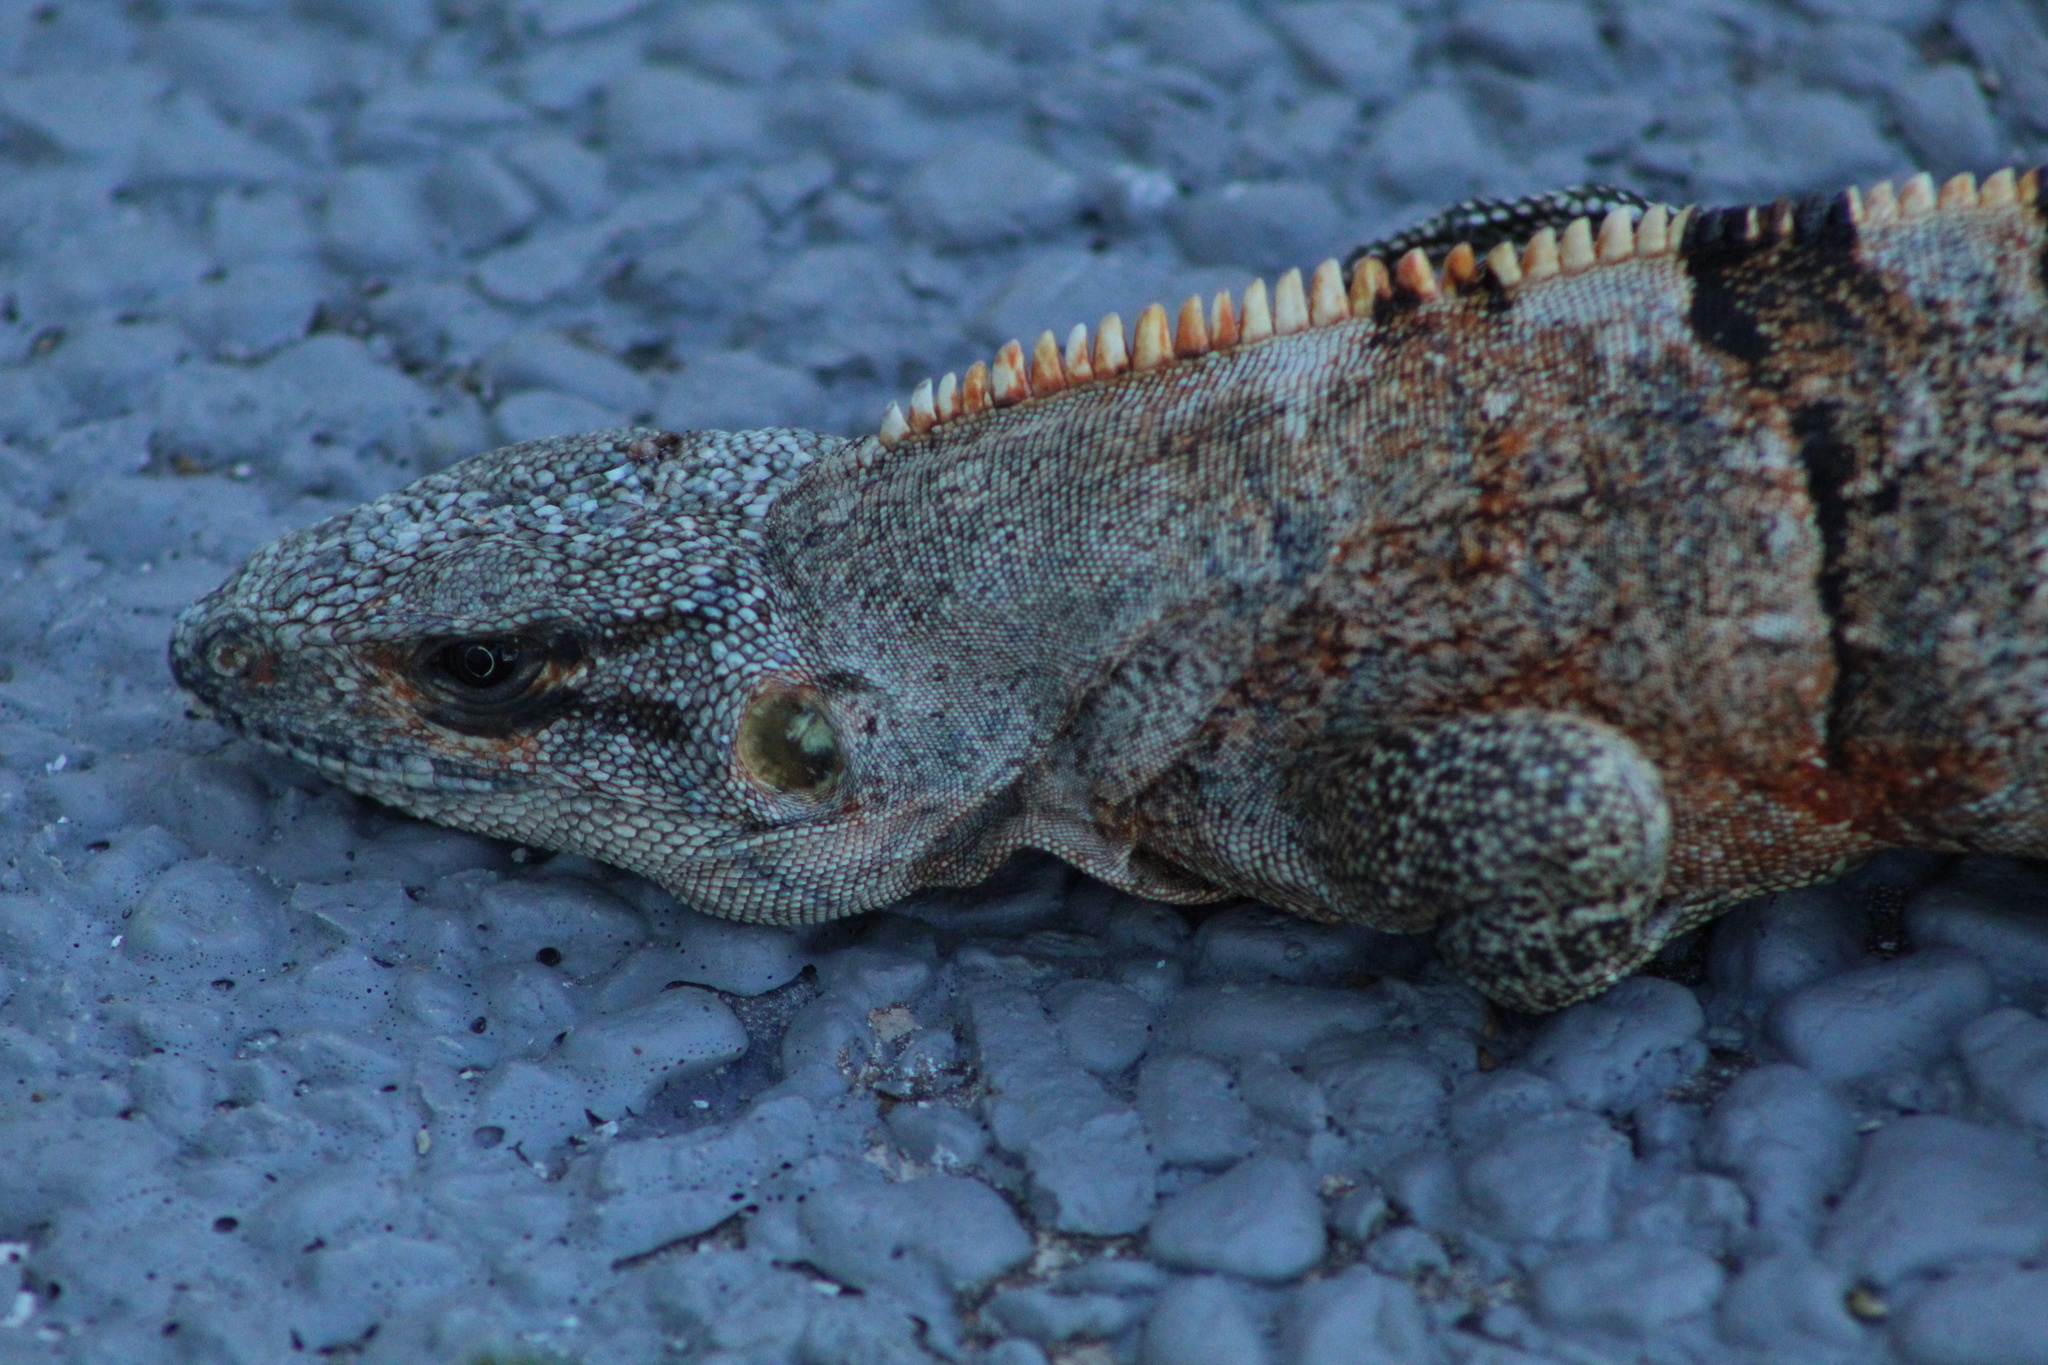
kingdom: Animalia
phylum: Chordata
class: Squamata
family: Iguanidae
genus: Ctenosaura
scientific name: Ctenosaura similis
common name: Black spiny-tailed iguana
